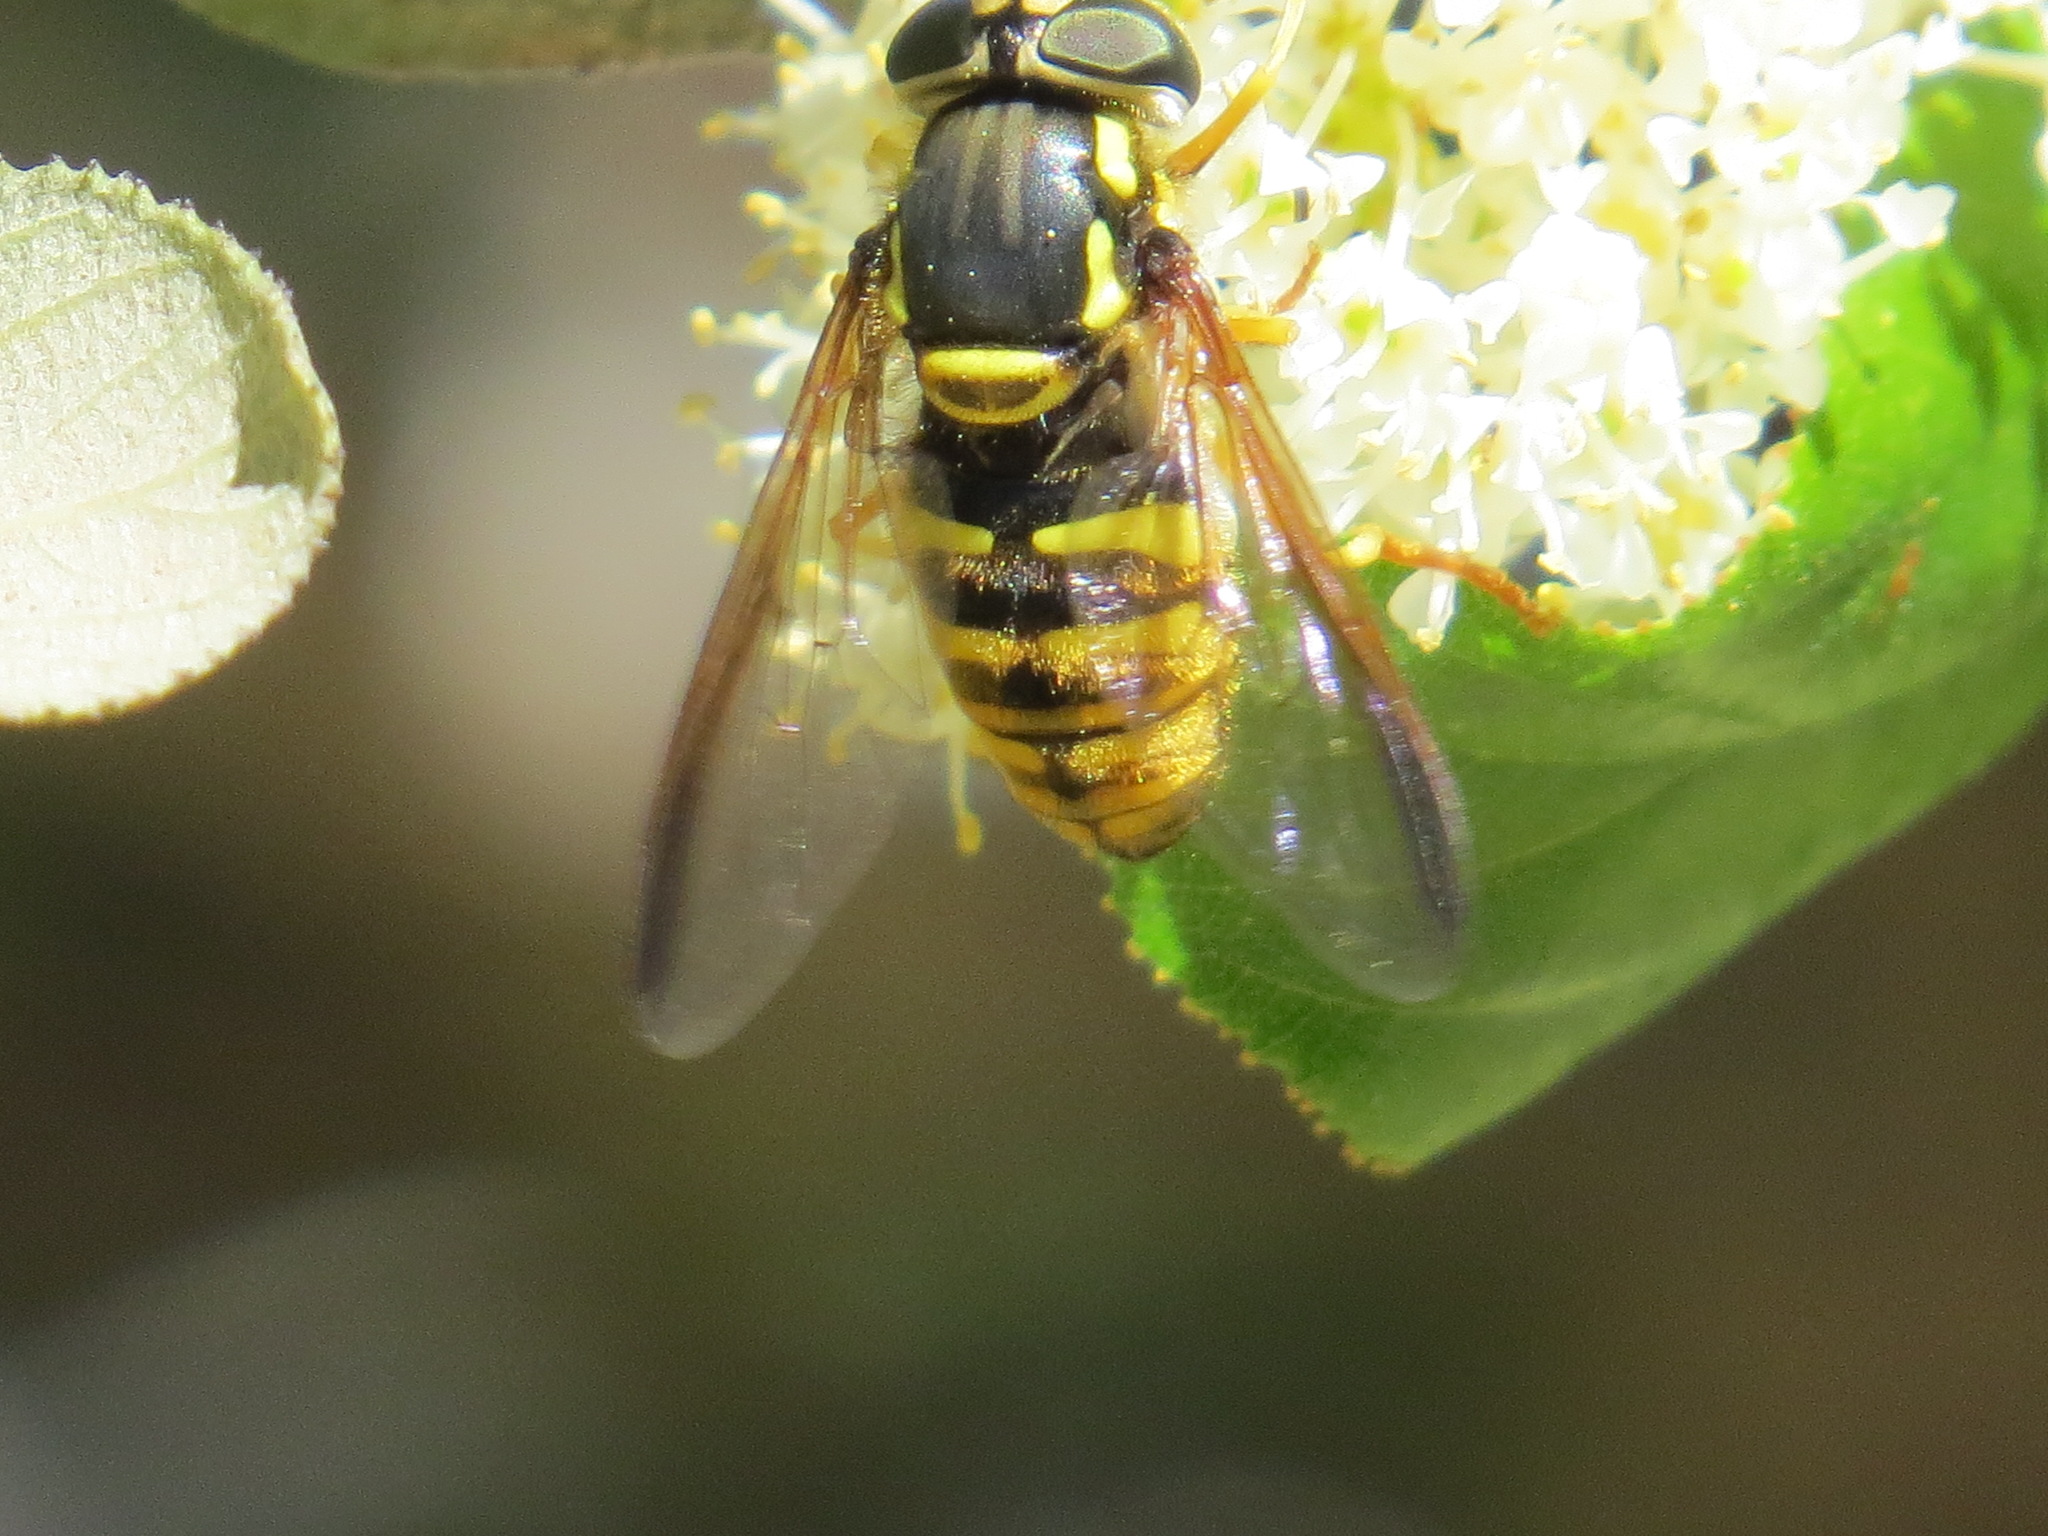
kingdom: Animalia
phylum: Arthropoda
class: Insecta
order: Diptera
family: Syrphidae
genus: Chrysotoxum
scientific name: Chrysotoxum
